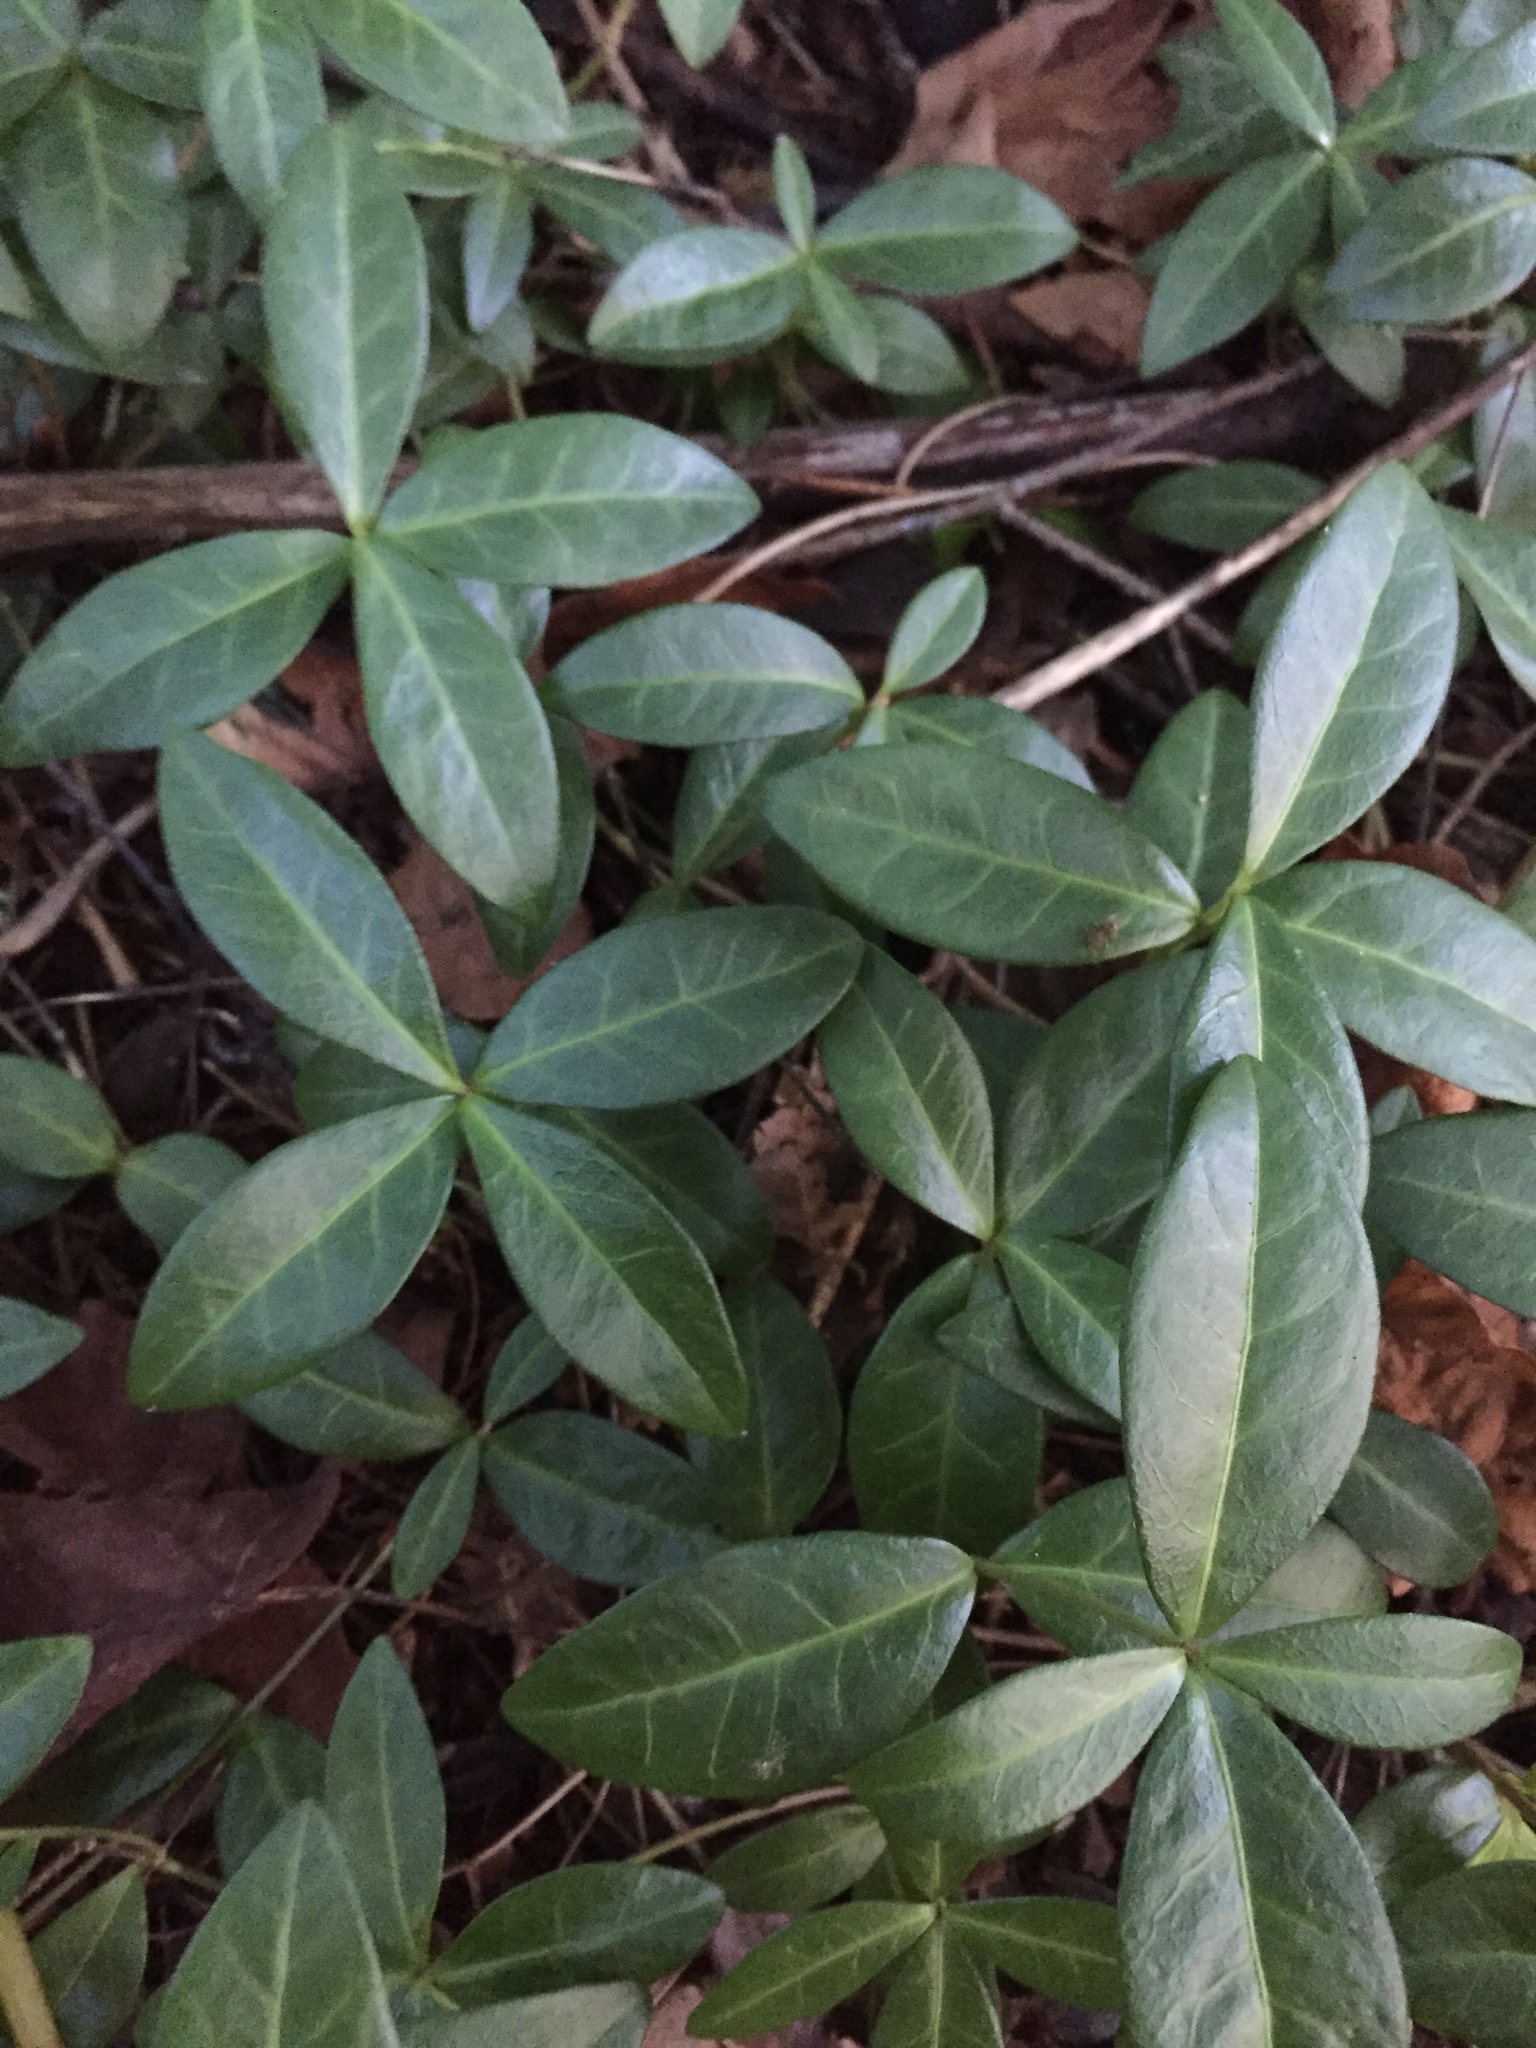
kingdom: Plantae
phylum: Tracheophyta
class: Magnoliopsida
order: Gentianales
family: Apocynaceae
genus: Vinca
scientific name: Vinca minor
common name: Lesser periwinkle
